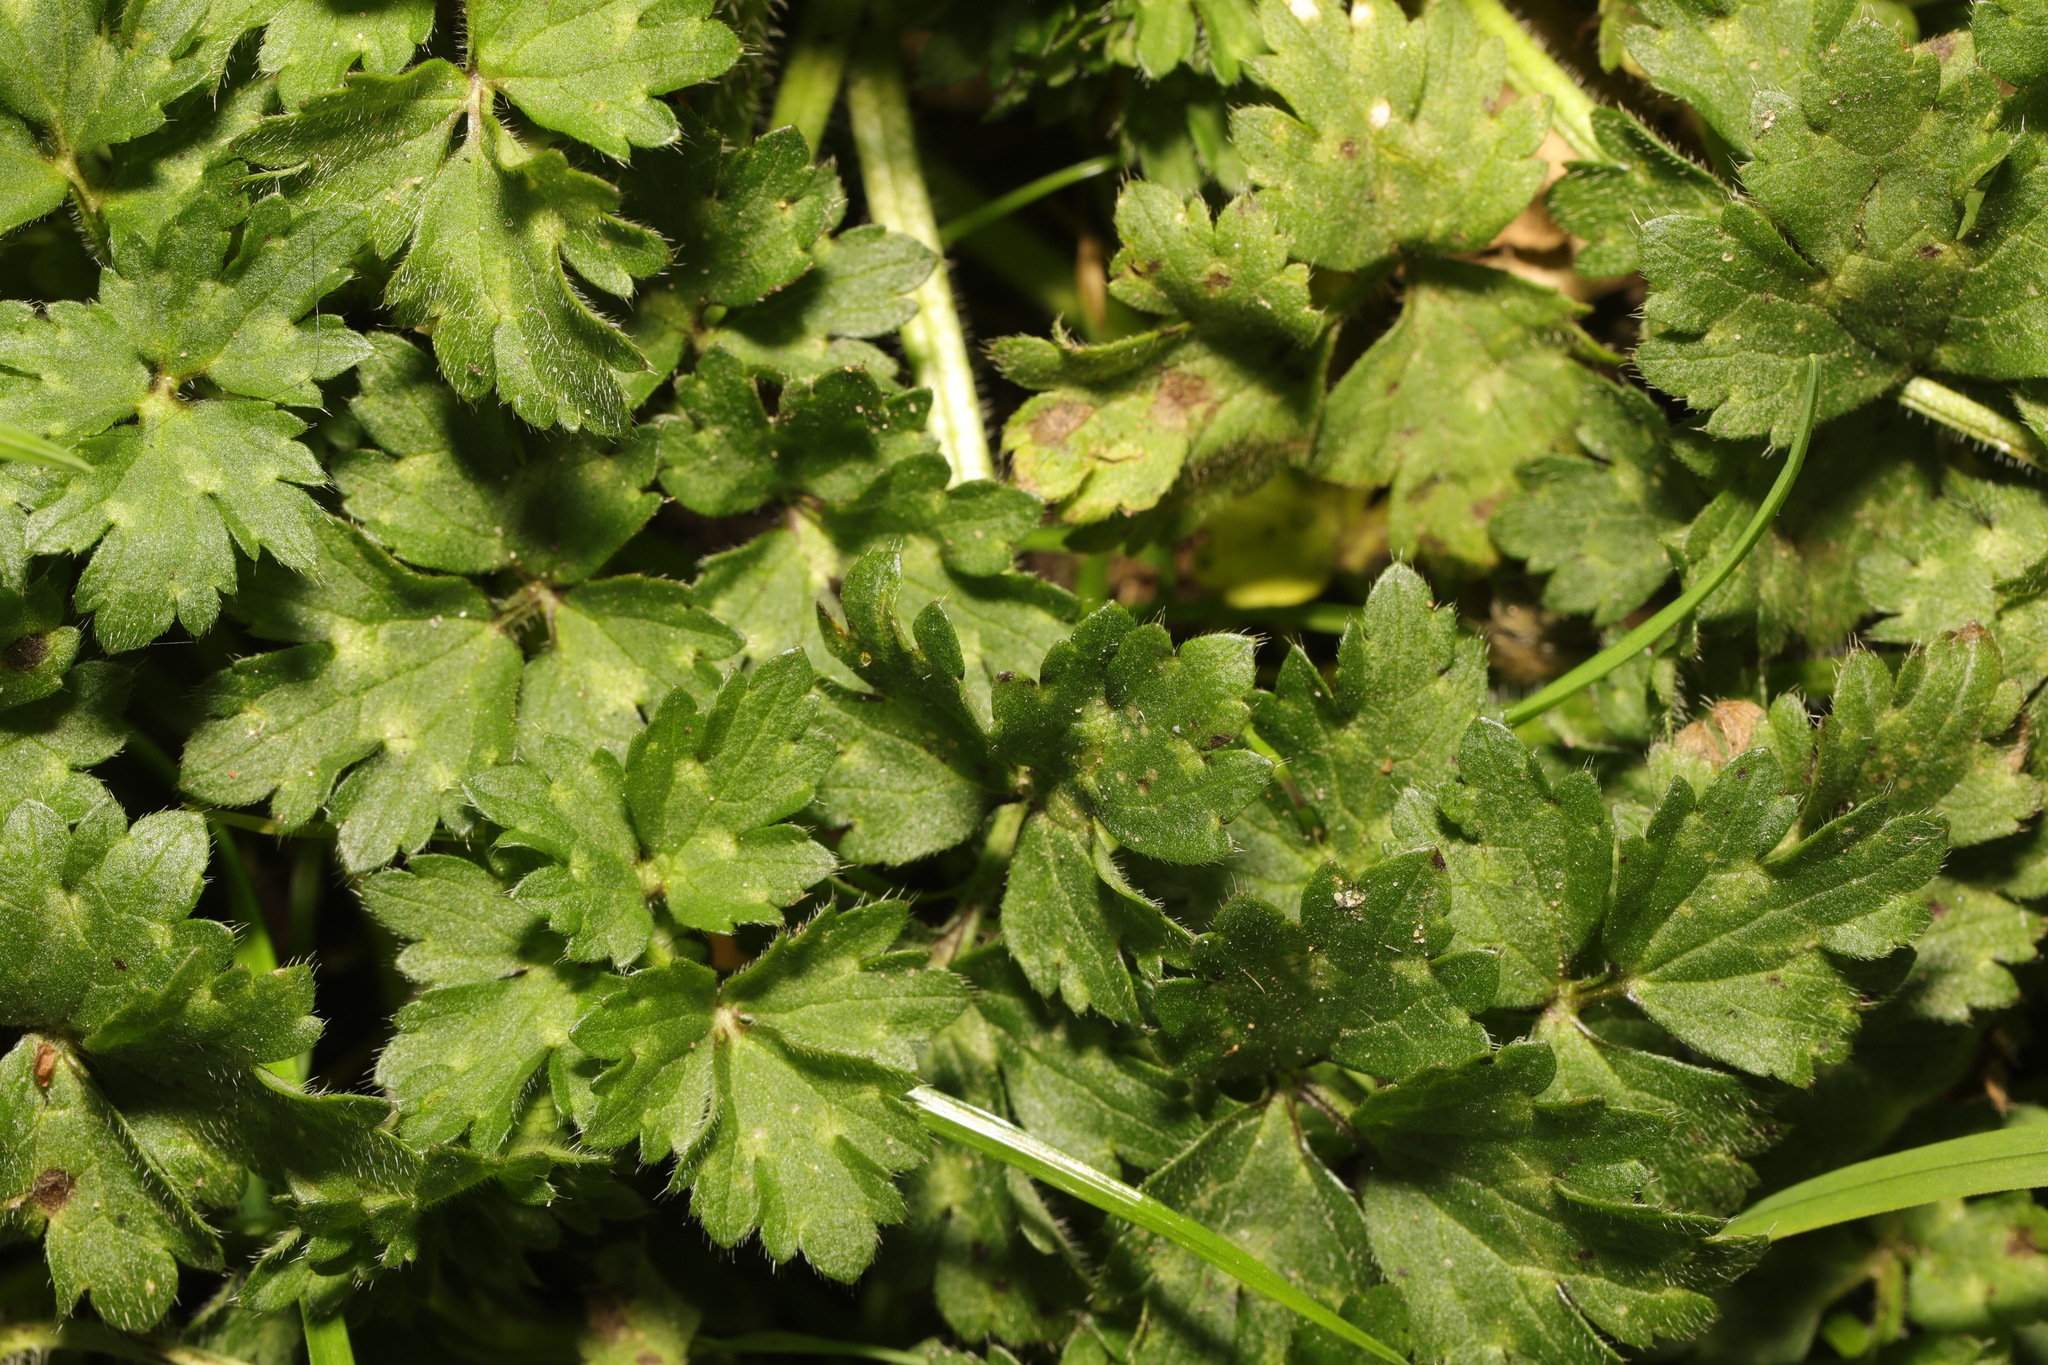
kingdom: Plantae
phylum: Tracheophyta
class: Magnoliopsida
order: Ranunculales
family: Ranunculaceae
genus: Ranunculus
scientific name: Ranunculus repens
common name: Creeping buttercup
